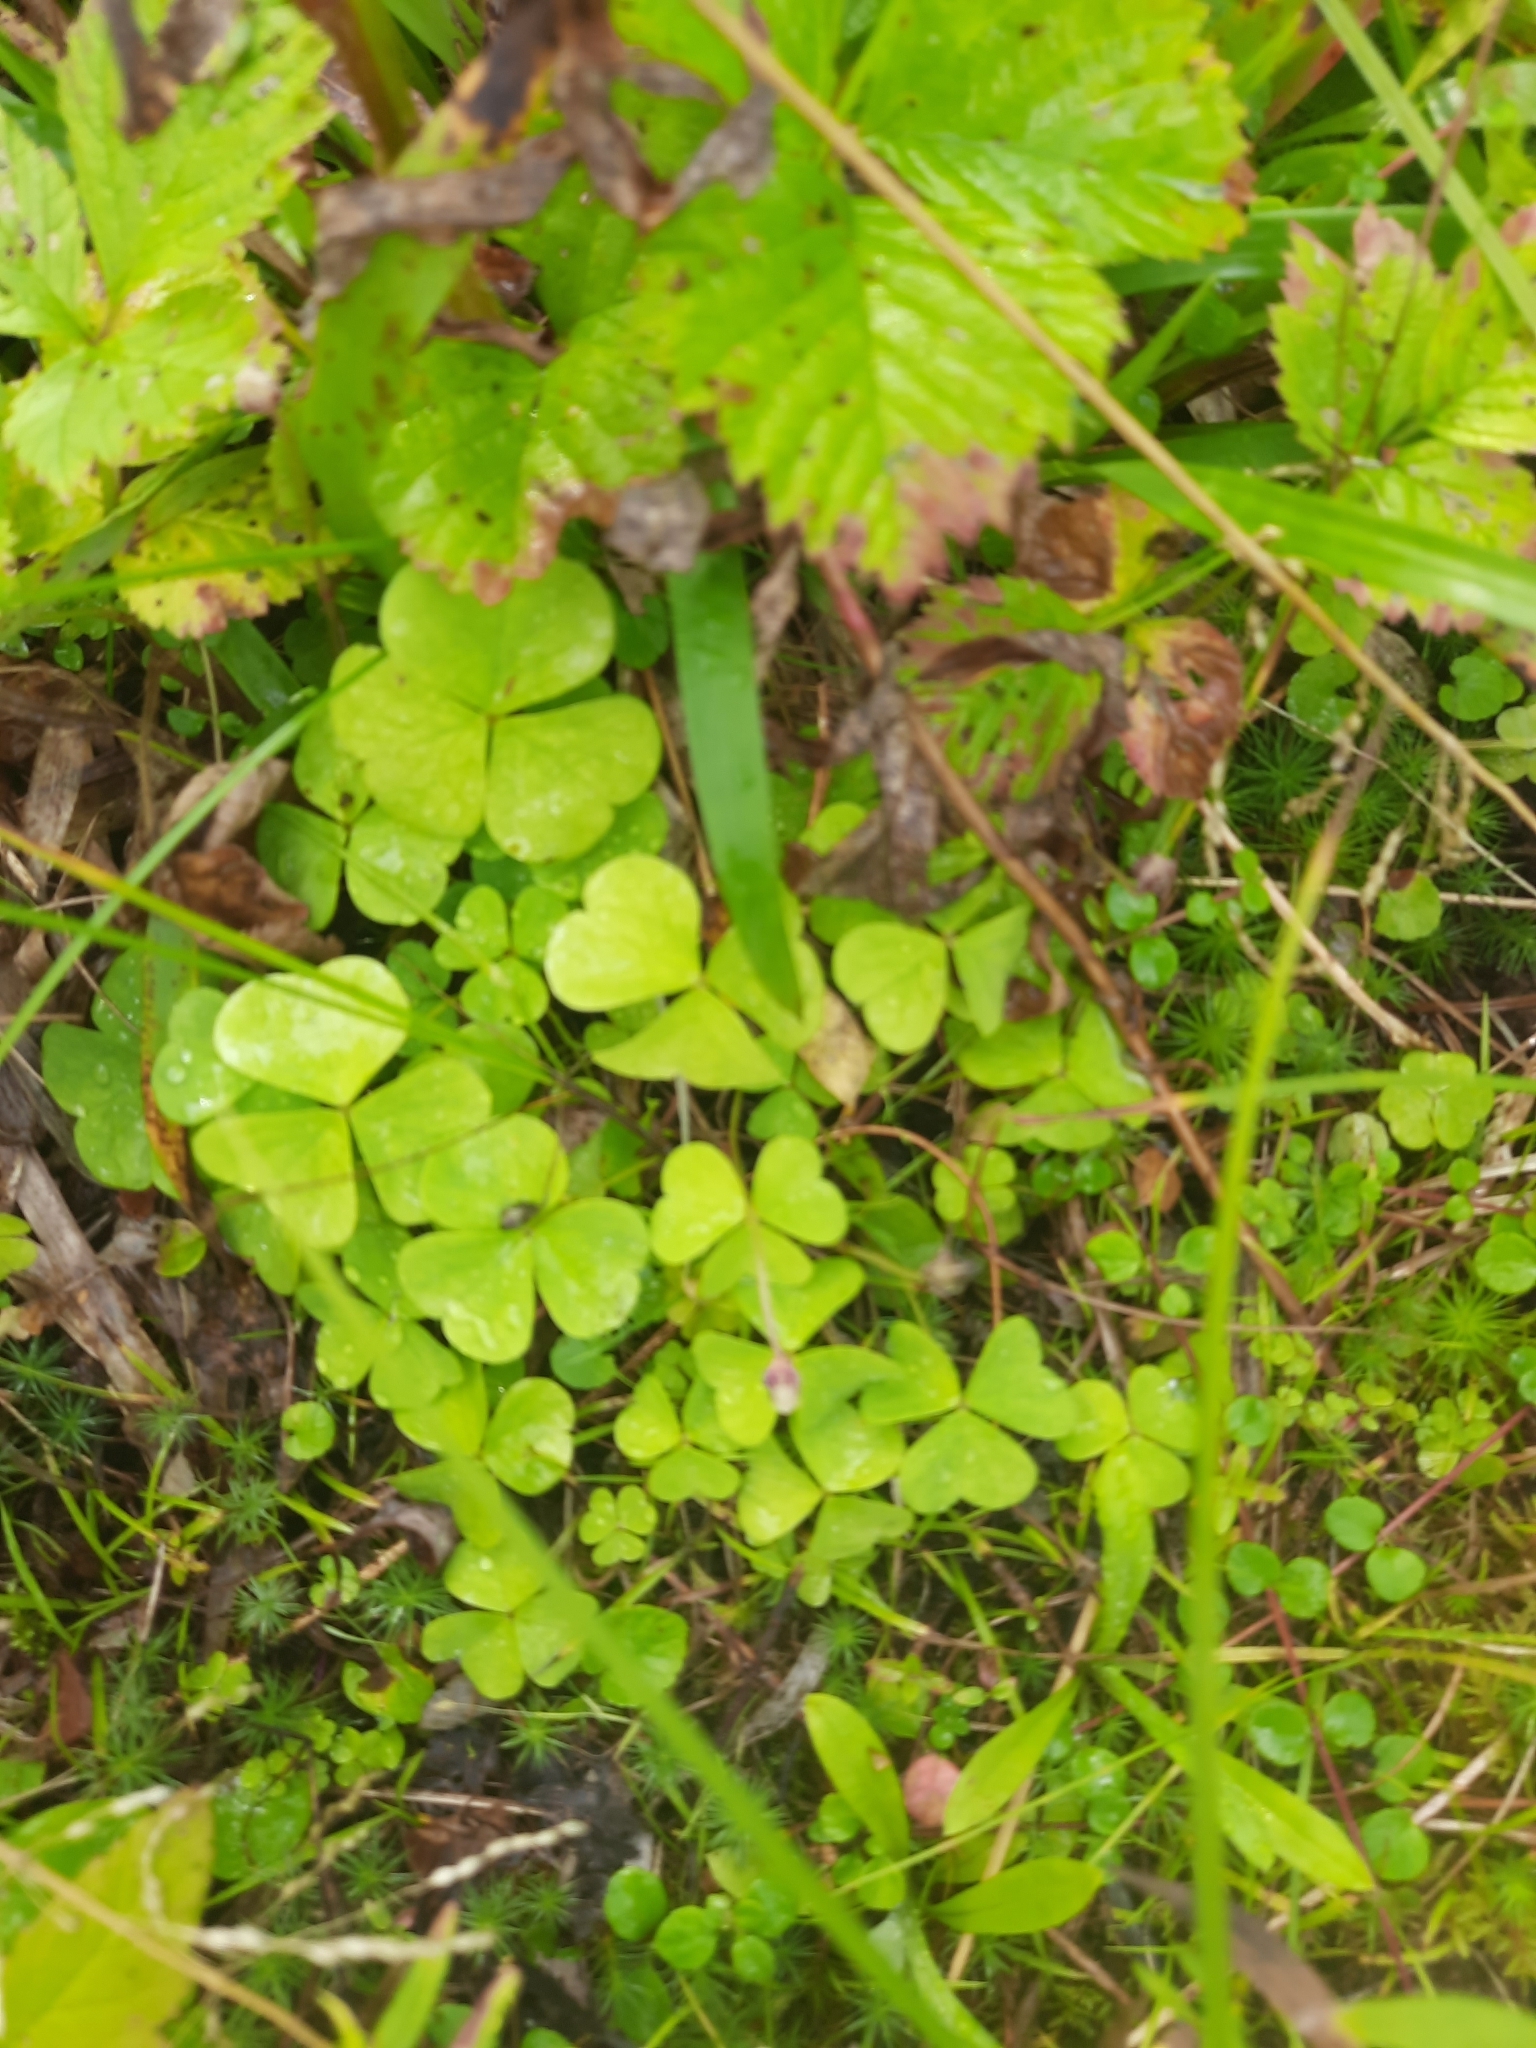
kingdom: Plantae
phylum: Tracheophyta
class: Magnoliopsida
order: Oxalidales
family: Oxalidaceae
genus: Oxalis
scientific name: Oxalis acetosella
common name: Wood-sorrel
